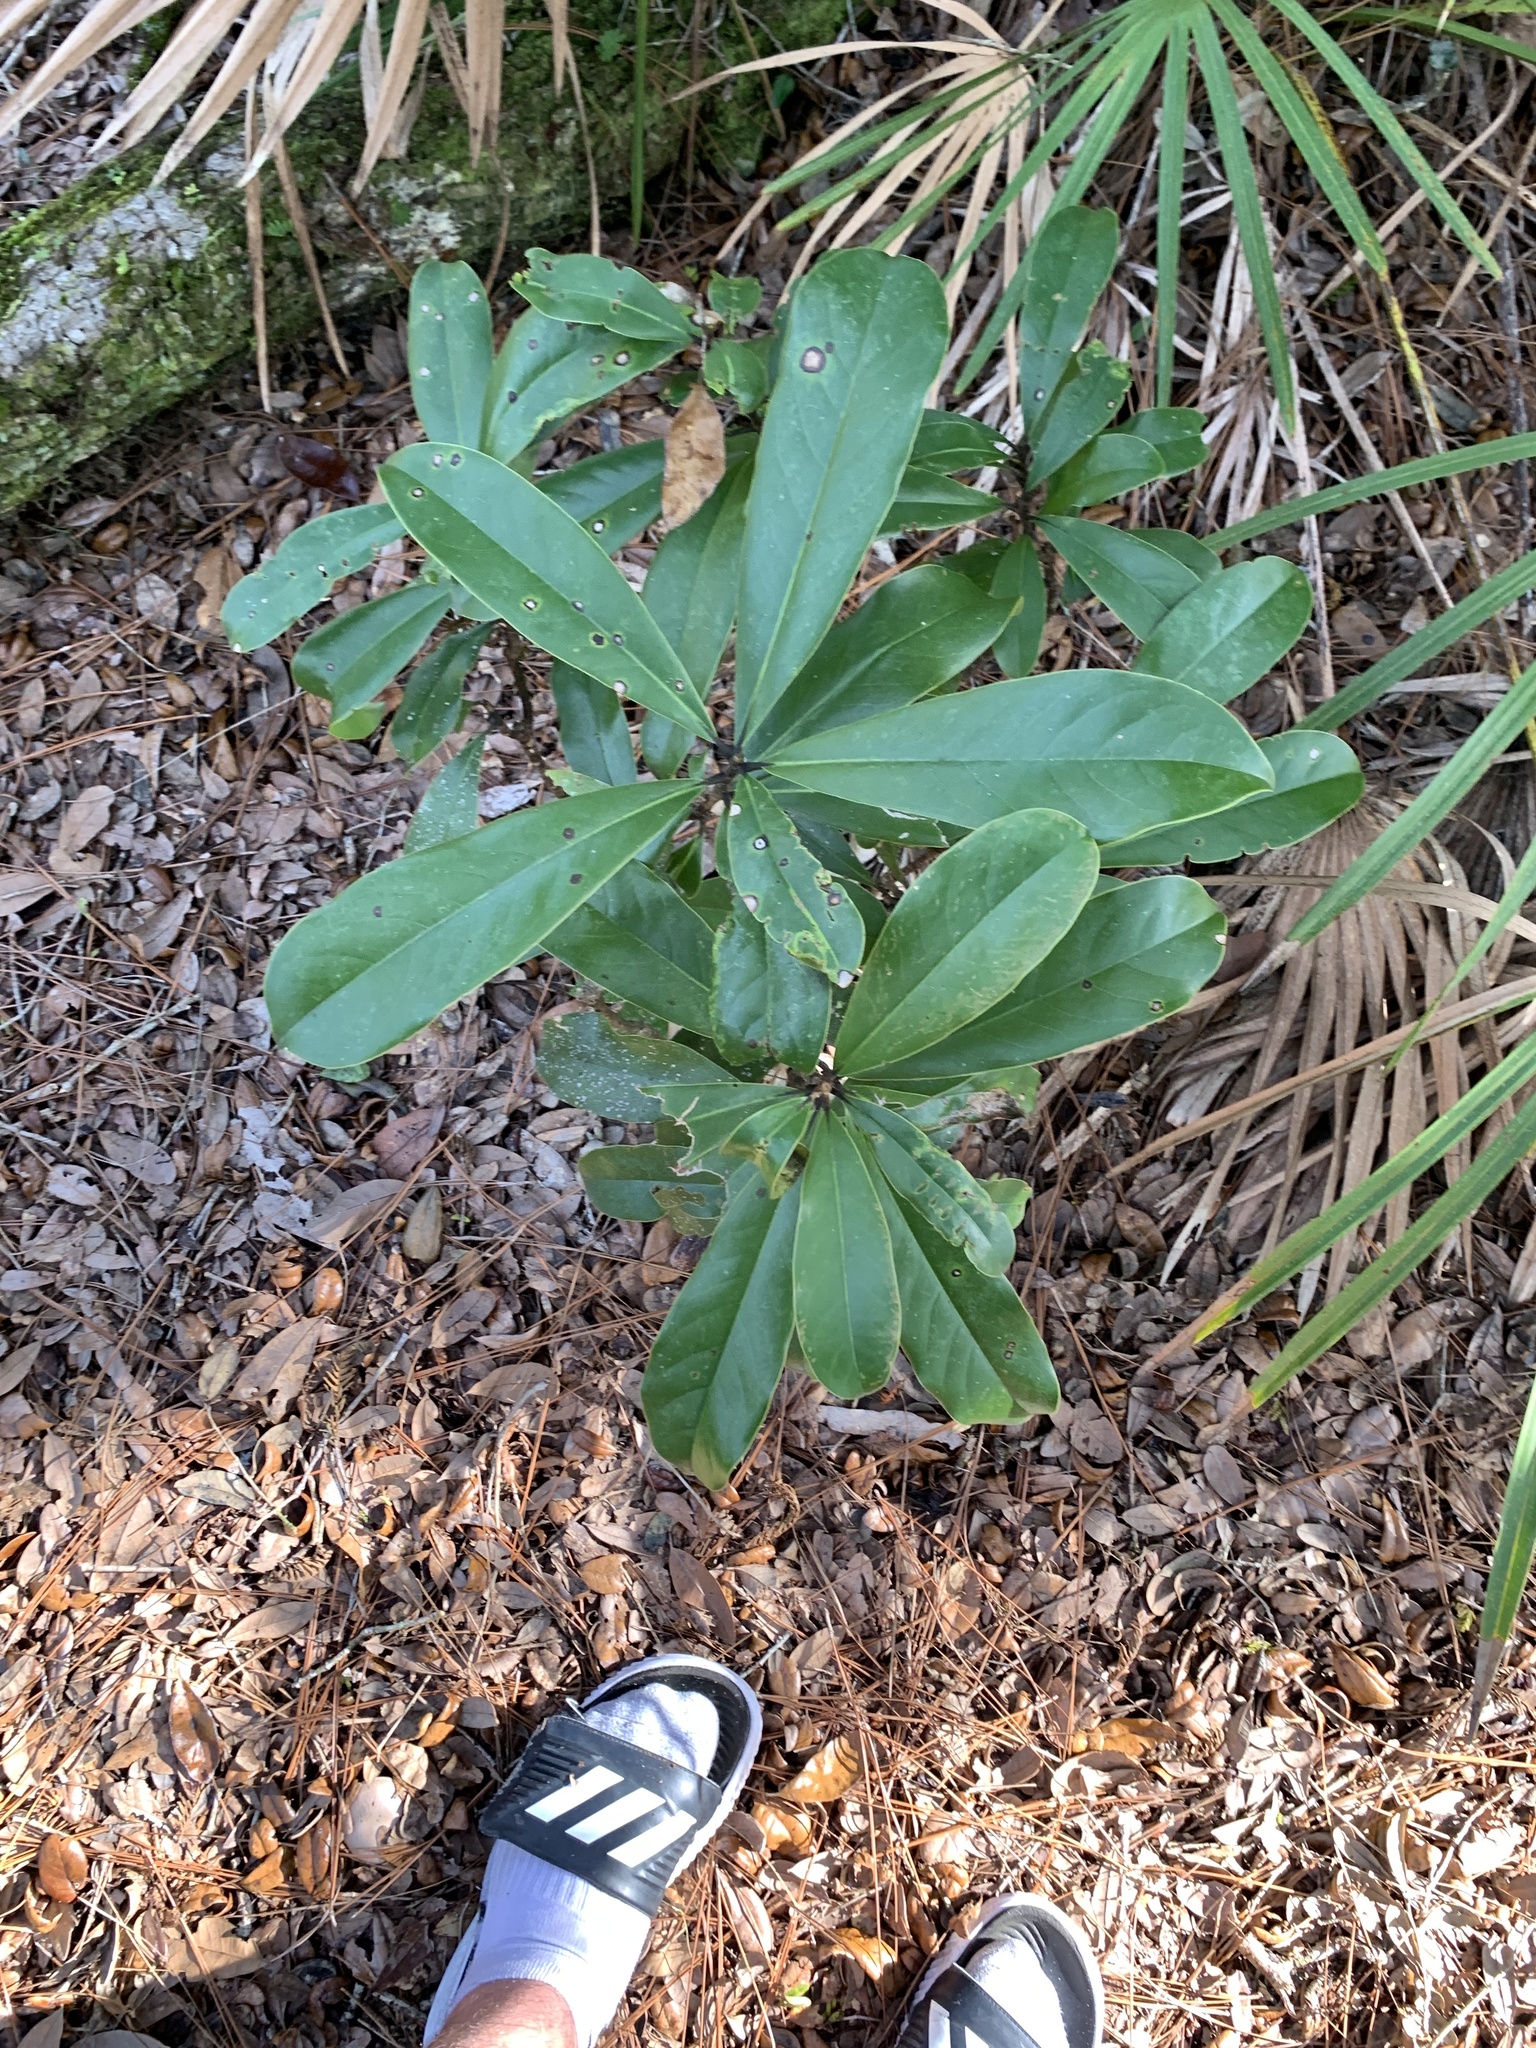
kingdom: Plantae
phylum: Tracheophyta
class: Magnoliopsida
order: Magnoliales
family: Magnoliaceae
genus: Magnolia
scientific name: Magnolia virginiana
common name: Swamp bay
